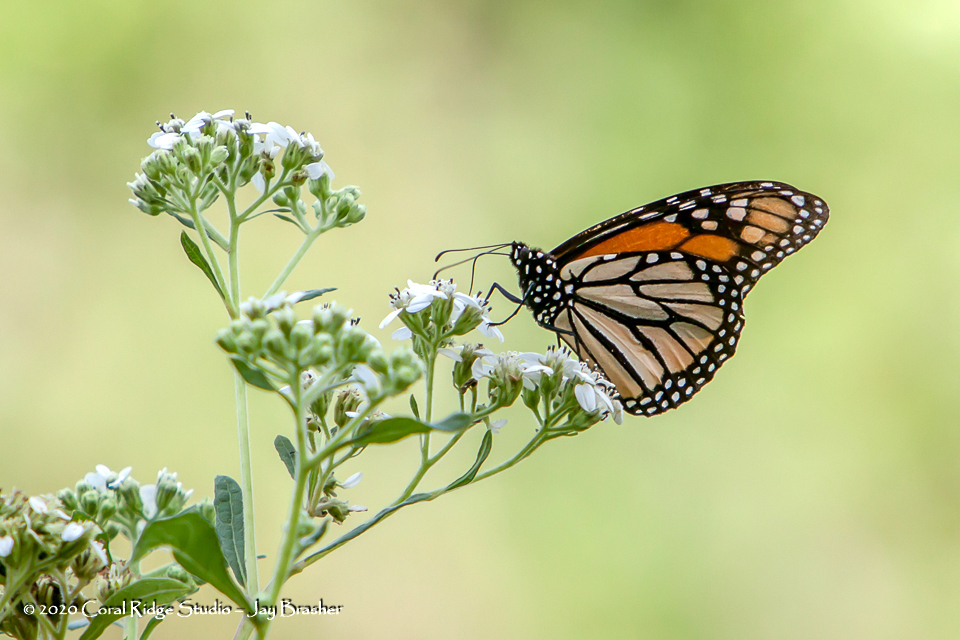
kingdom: Animalia
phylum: Arthropoda
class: Insecta
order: Lepidoptera
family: Nymphalidae
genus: Danaus
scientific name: Danaus plexippus
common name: Monarch
